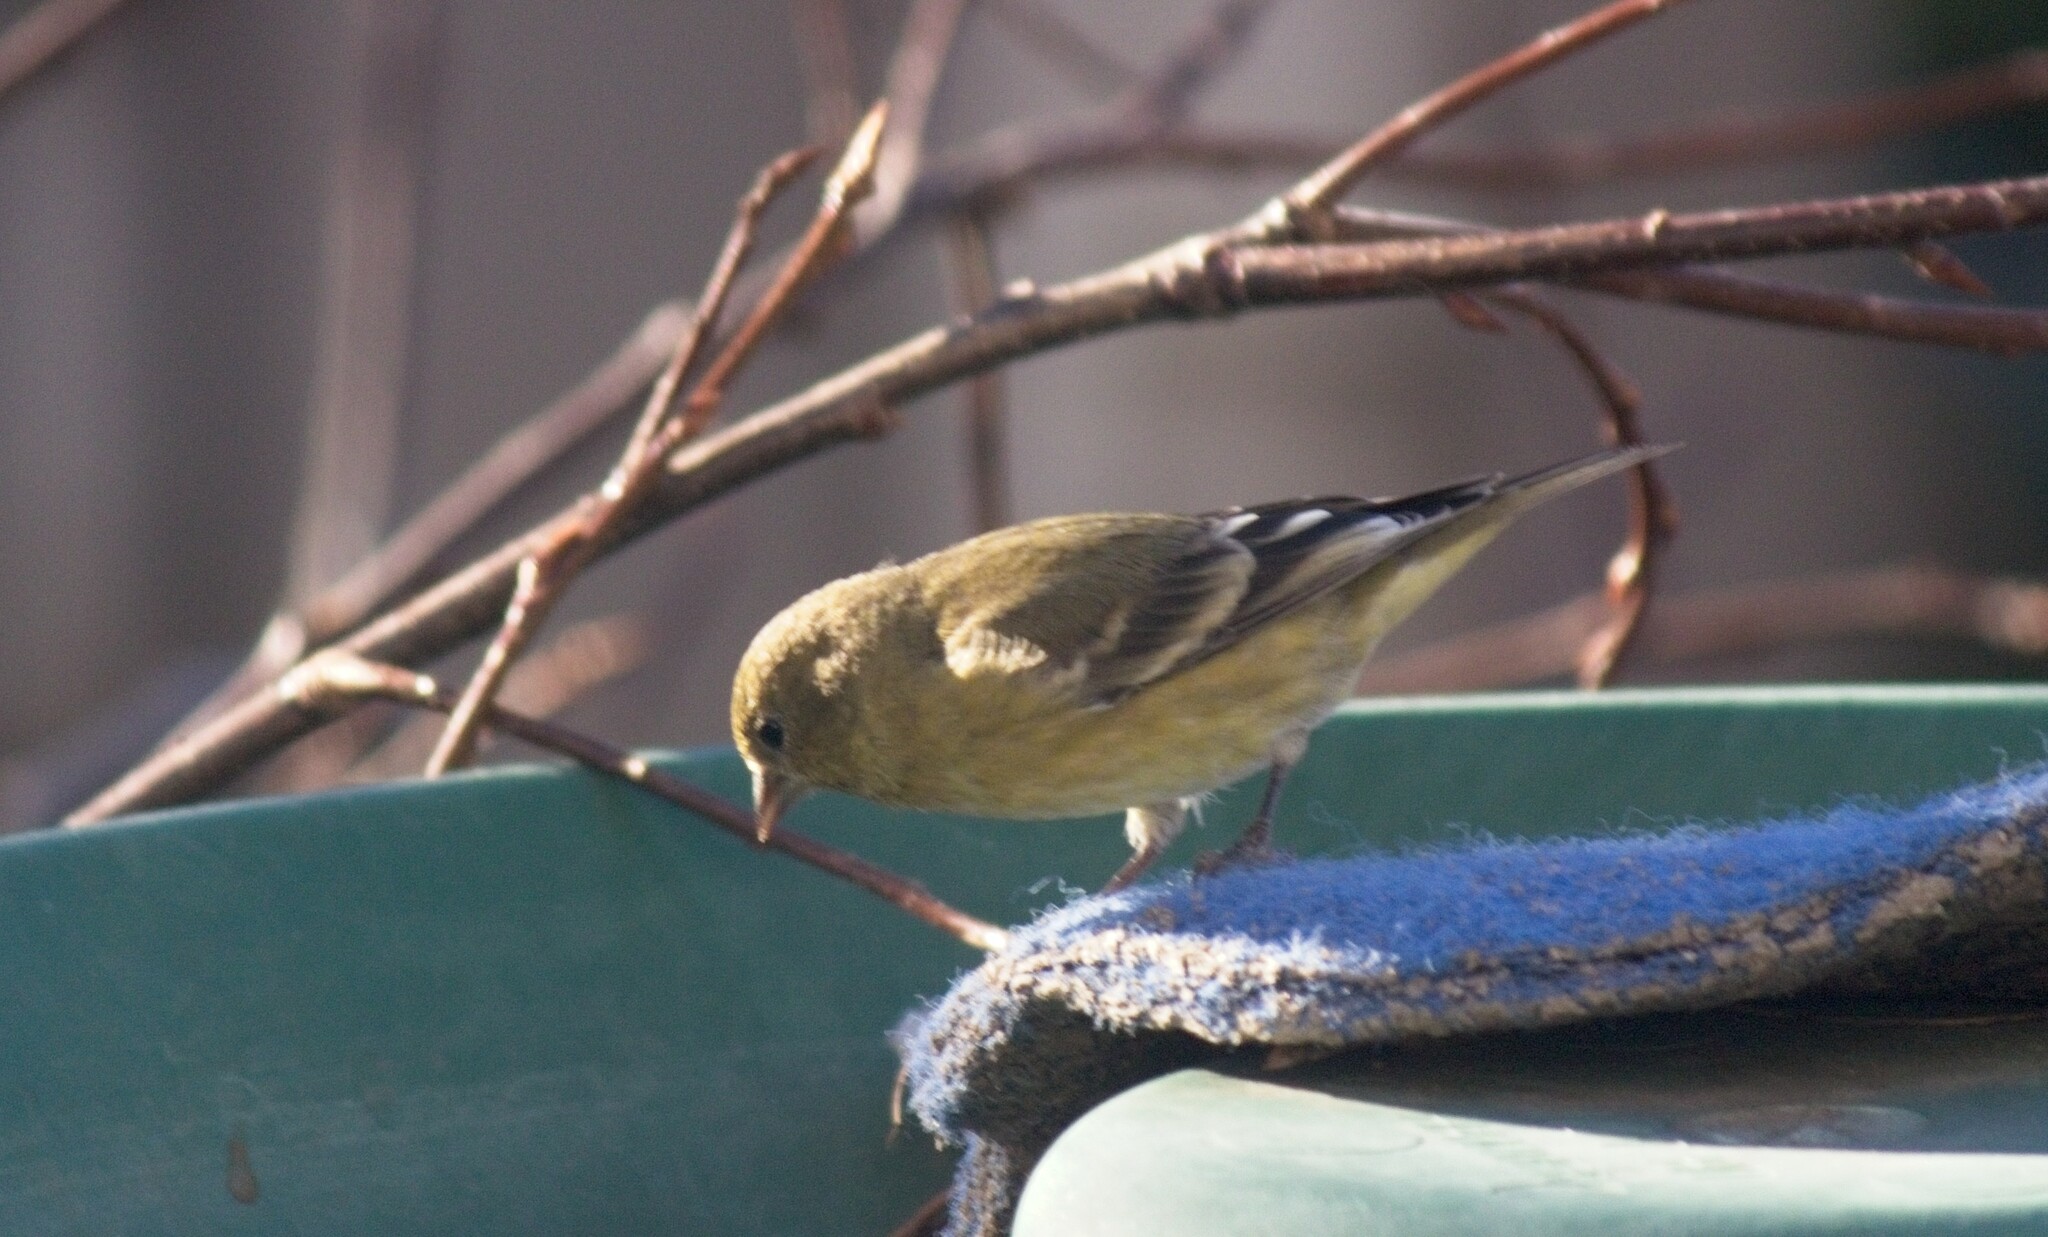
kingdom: Animalia
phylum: Chordata
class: Aves
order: Passeriformes
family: Fringillidae
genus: Spinus
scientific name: Spinus psaltria
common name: Lesser goldfinch
